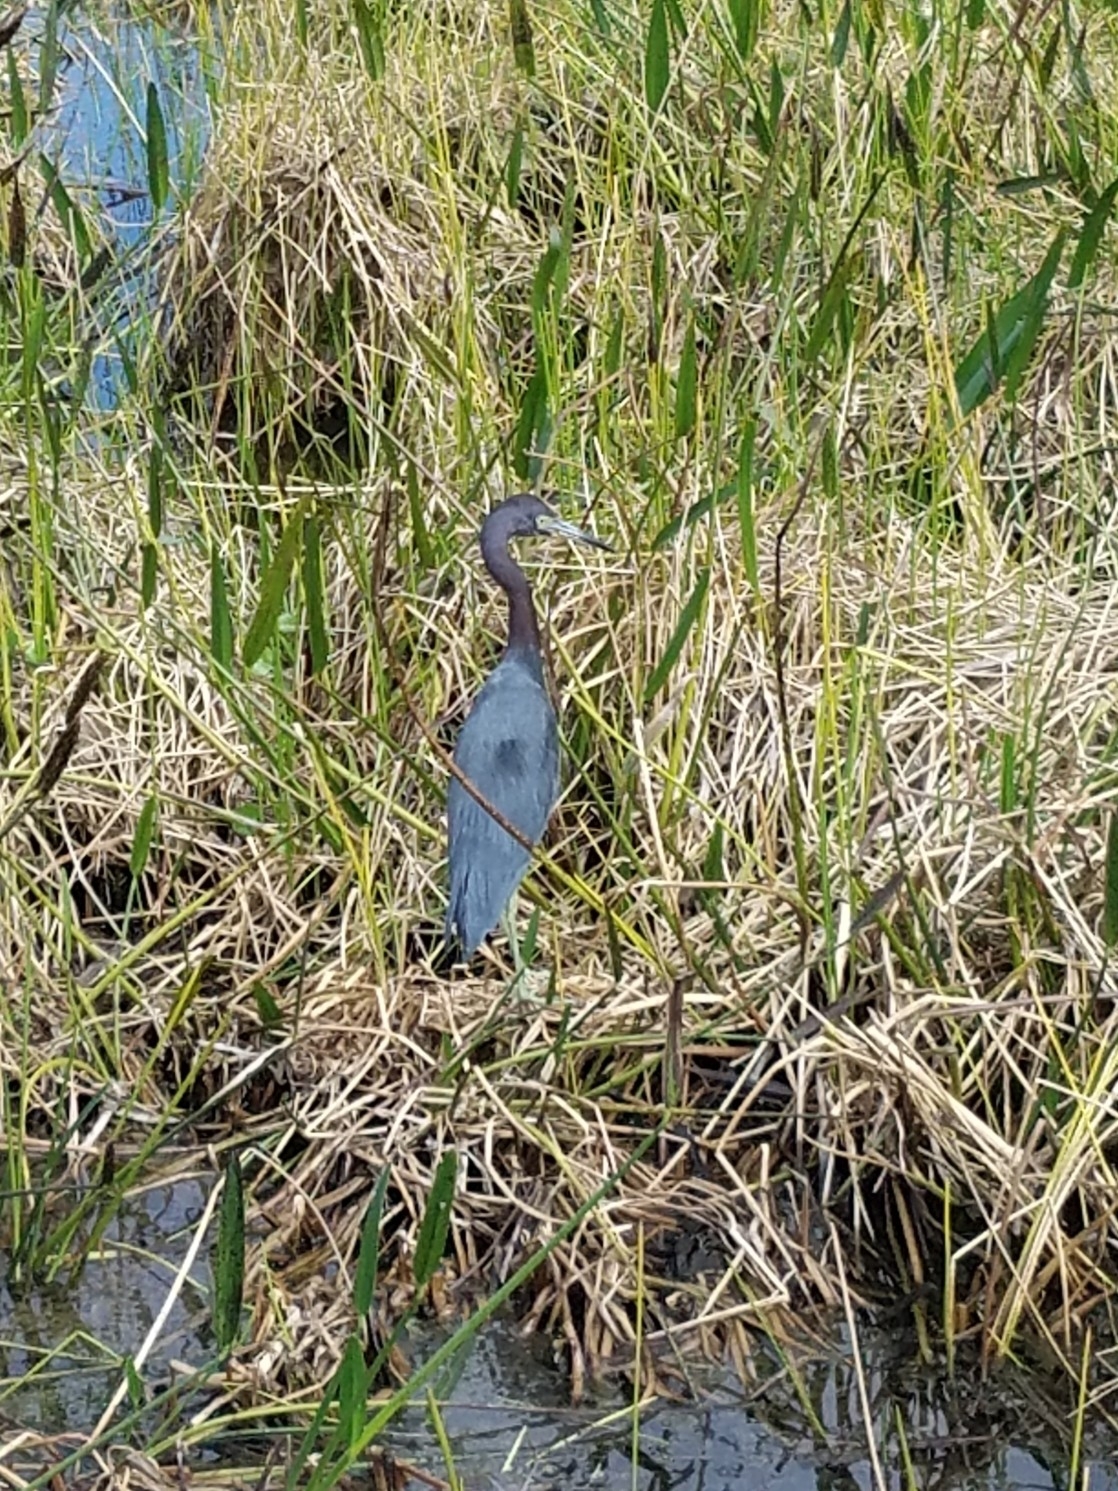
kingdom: Animalia
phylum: Chordata
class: Aves
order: Pelecaniformes
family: Ardeidae
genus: Egretta
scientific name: Egretta caerulea
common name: Little blue heron
